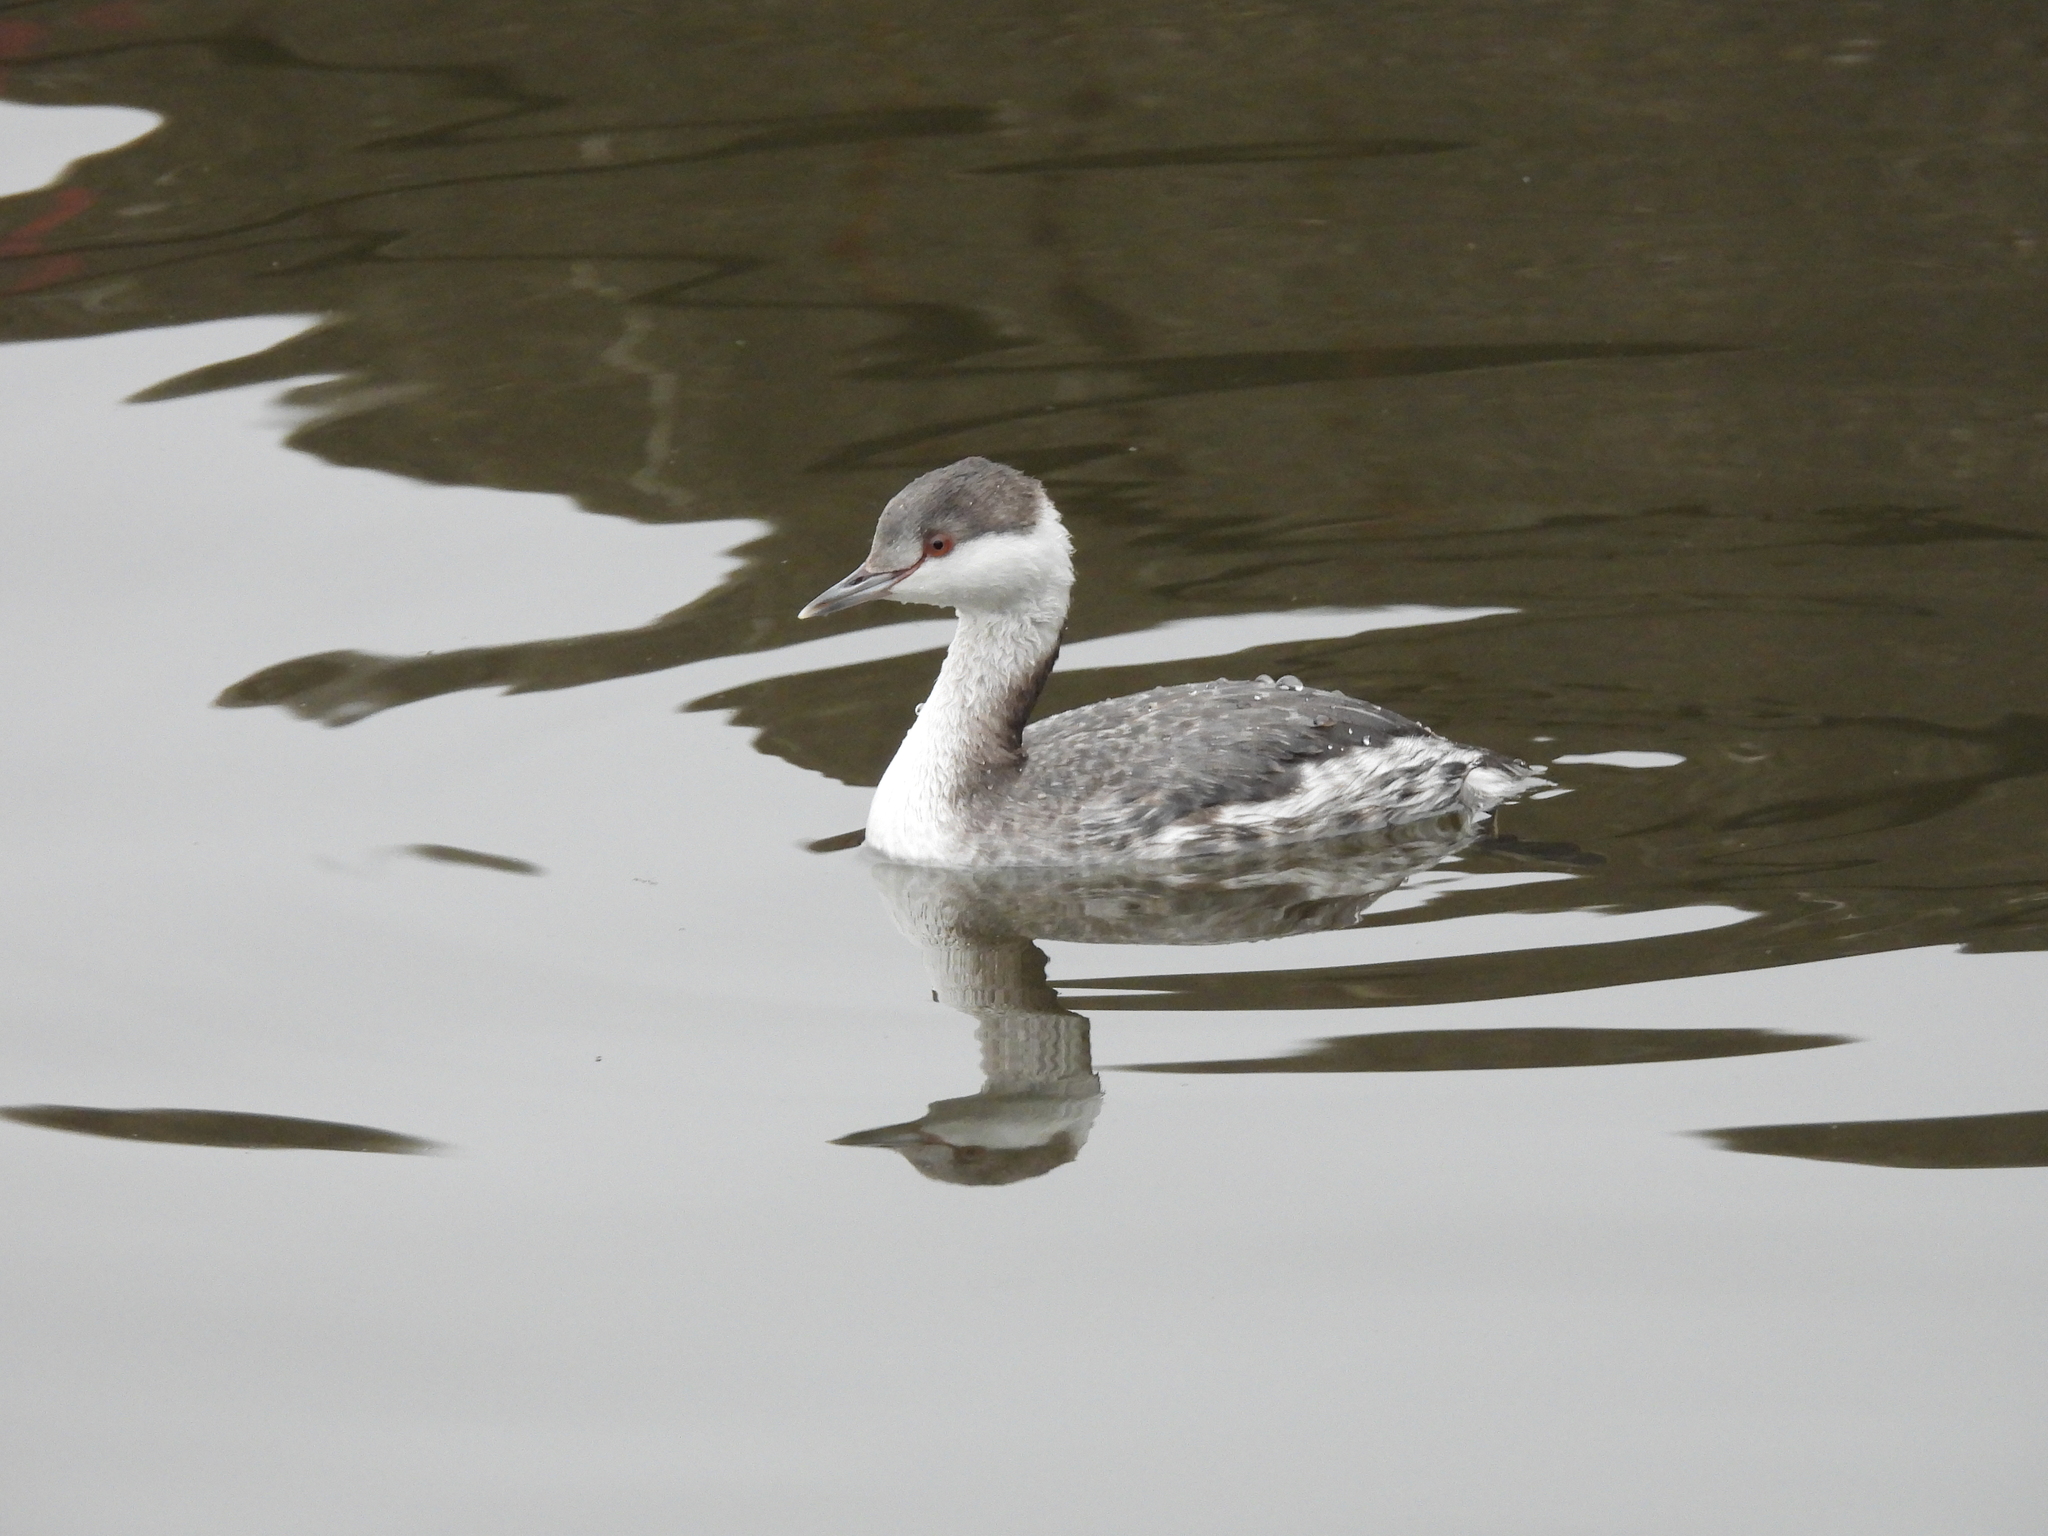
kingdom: Animalia
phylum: Chordata
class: Aves
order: Podicipediformes
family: Podicipedidae
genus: Podiceps
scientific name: Podiceps auritus
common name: Horned grebe
